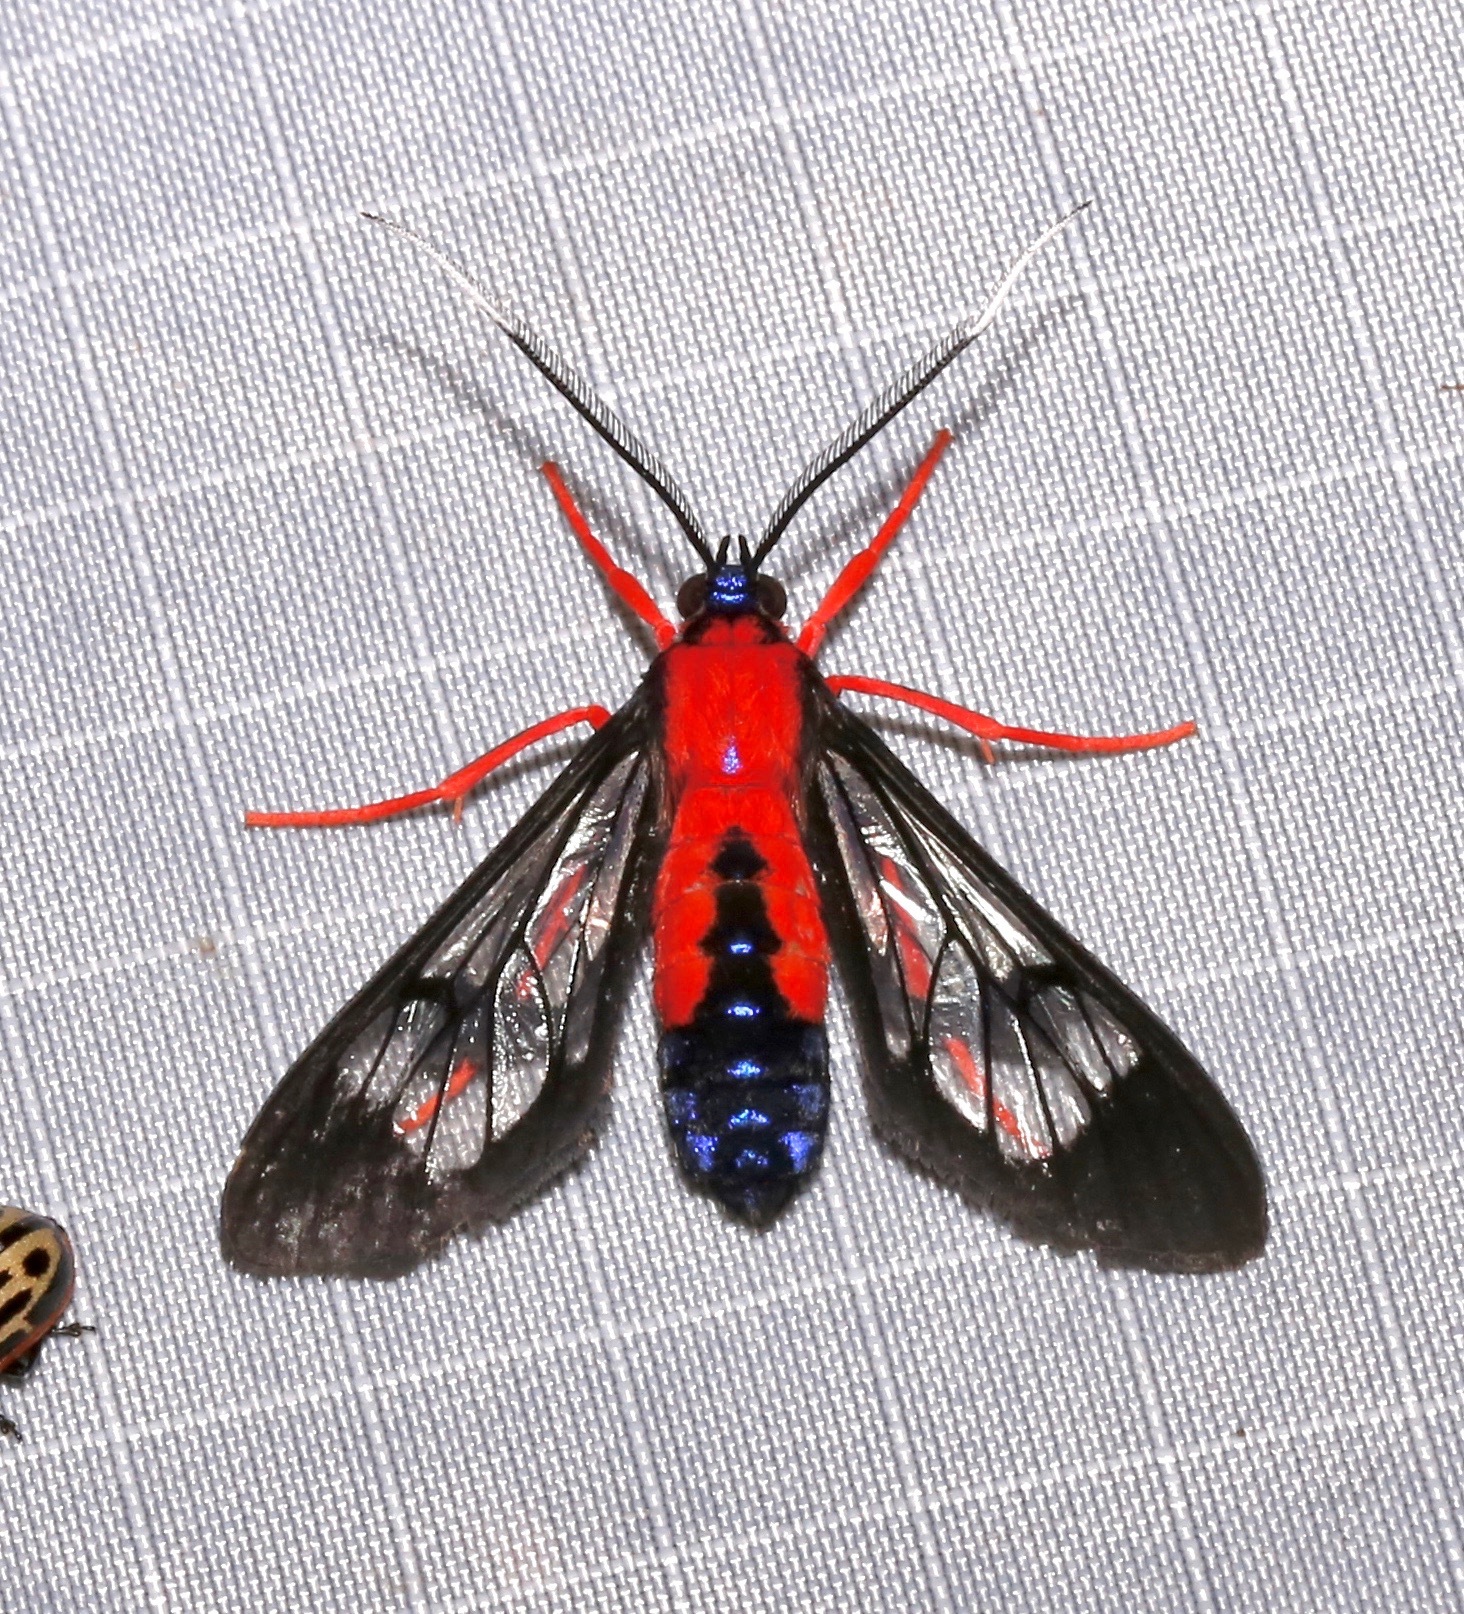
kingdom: Animalia
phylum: Arthropoda
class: Insecta
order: Lepidoptera
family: Erebidae
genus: Cosmosoma
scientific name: Cosmosoma myrodora
